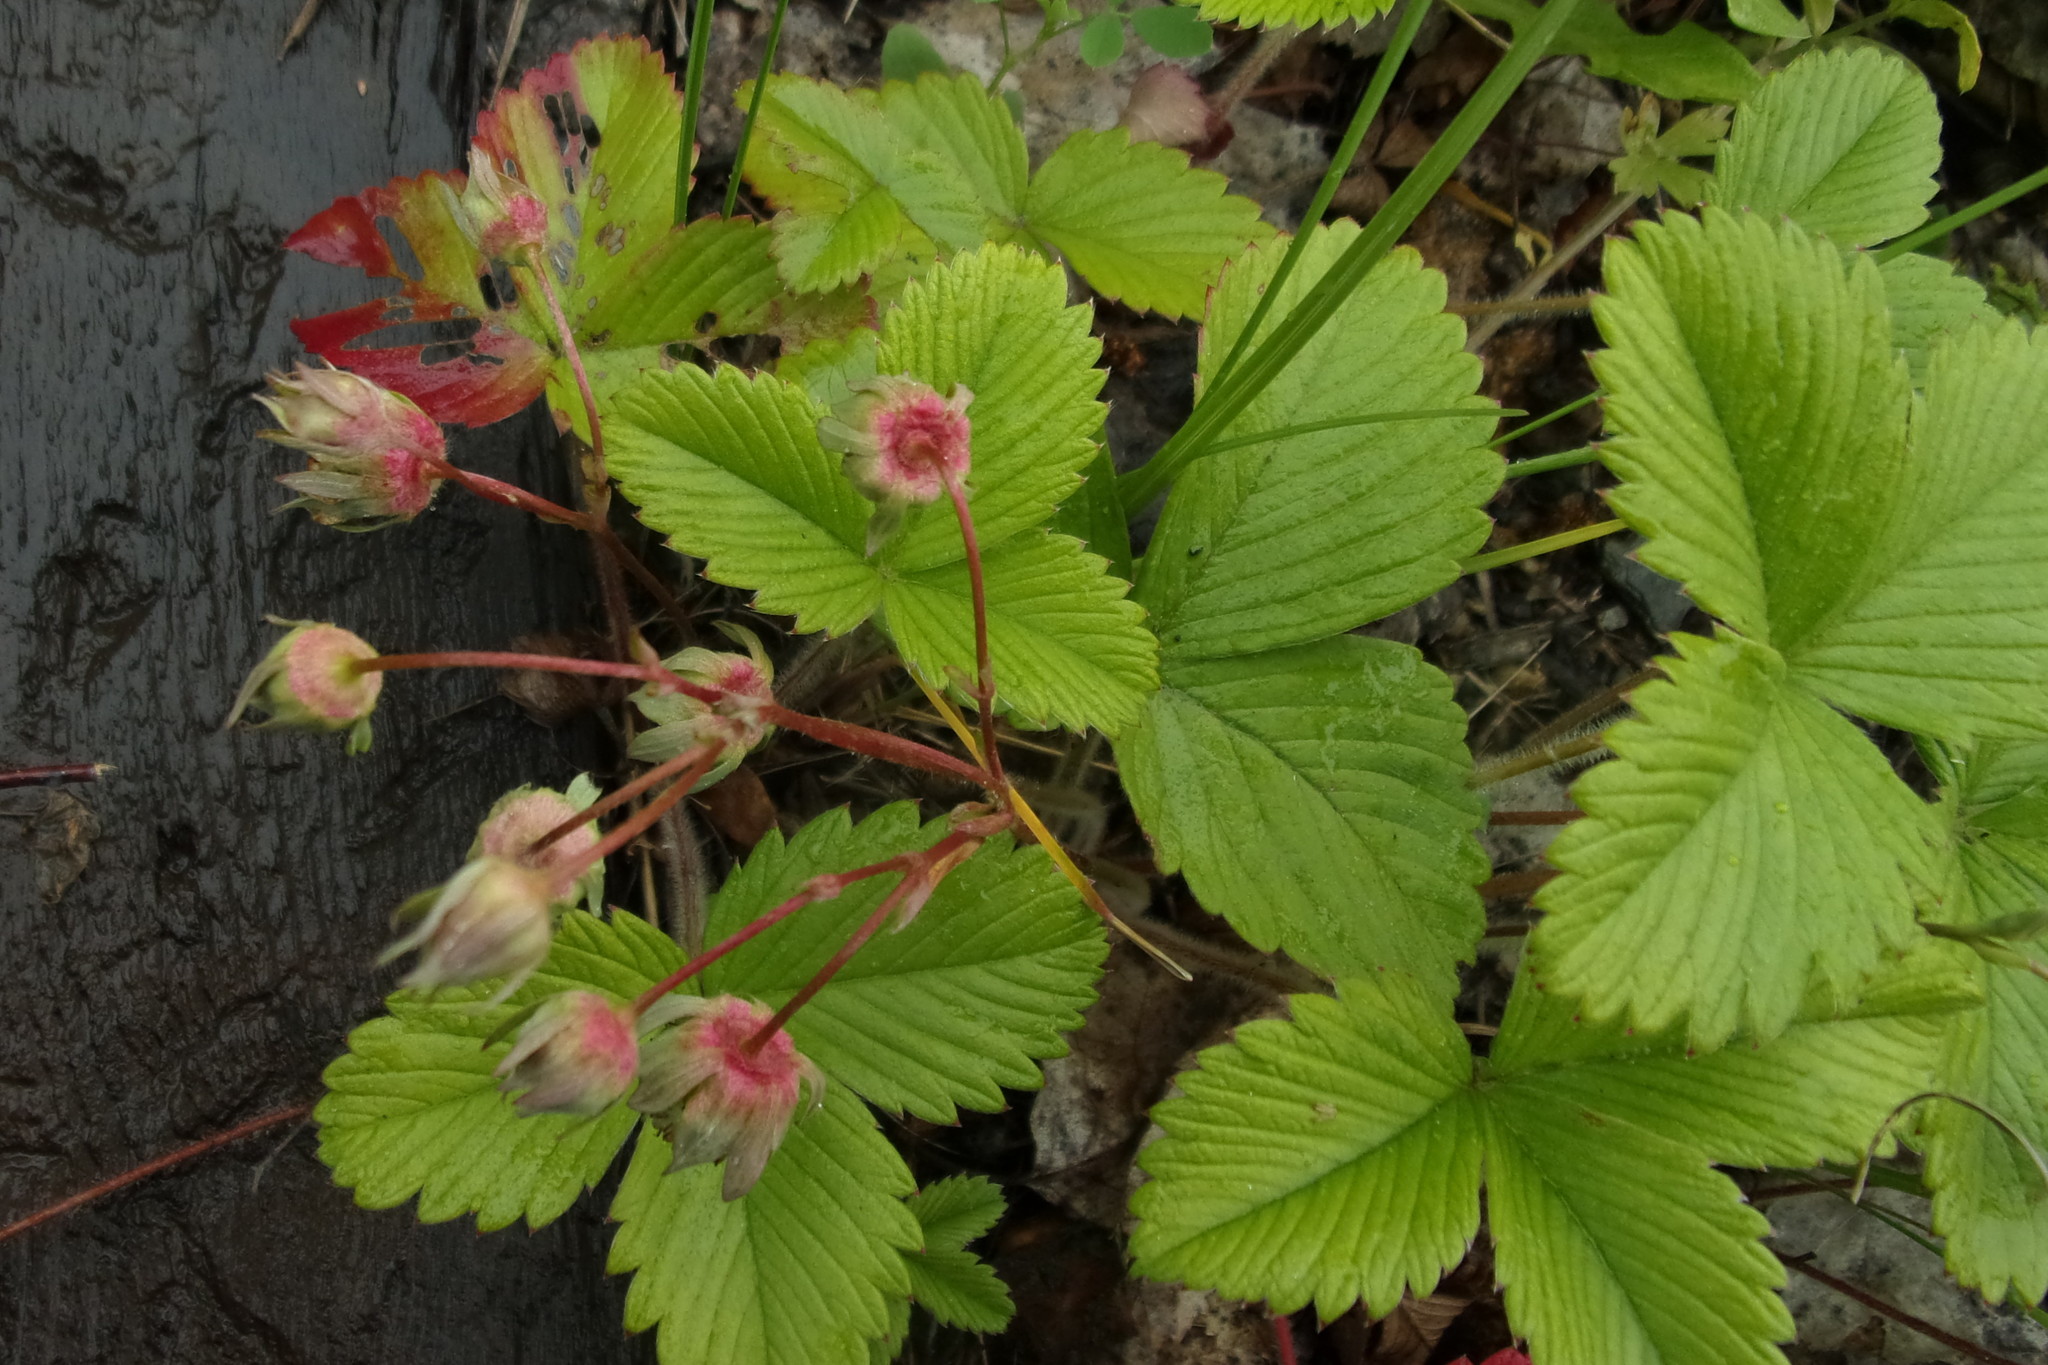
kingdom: Plantae
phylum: Tracheophyta
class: Magnoliopsida
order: Rosales
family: Rosaceae
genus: Fragaria
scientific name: Fragaria viridis
